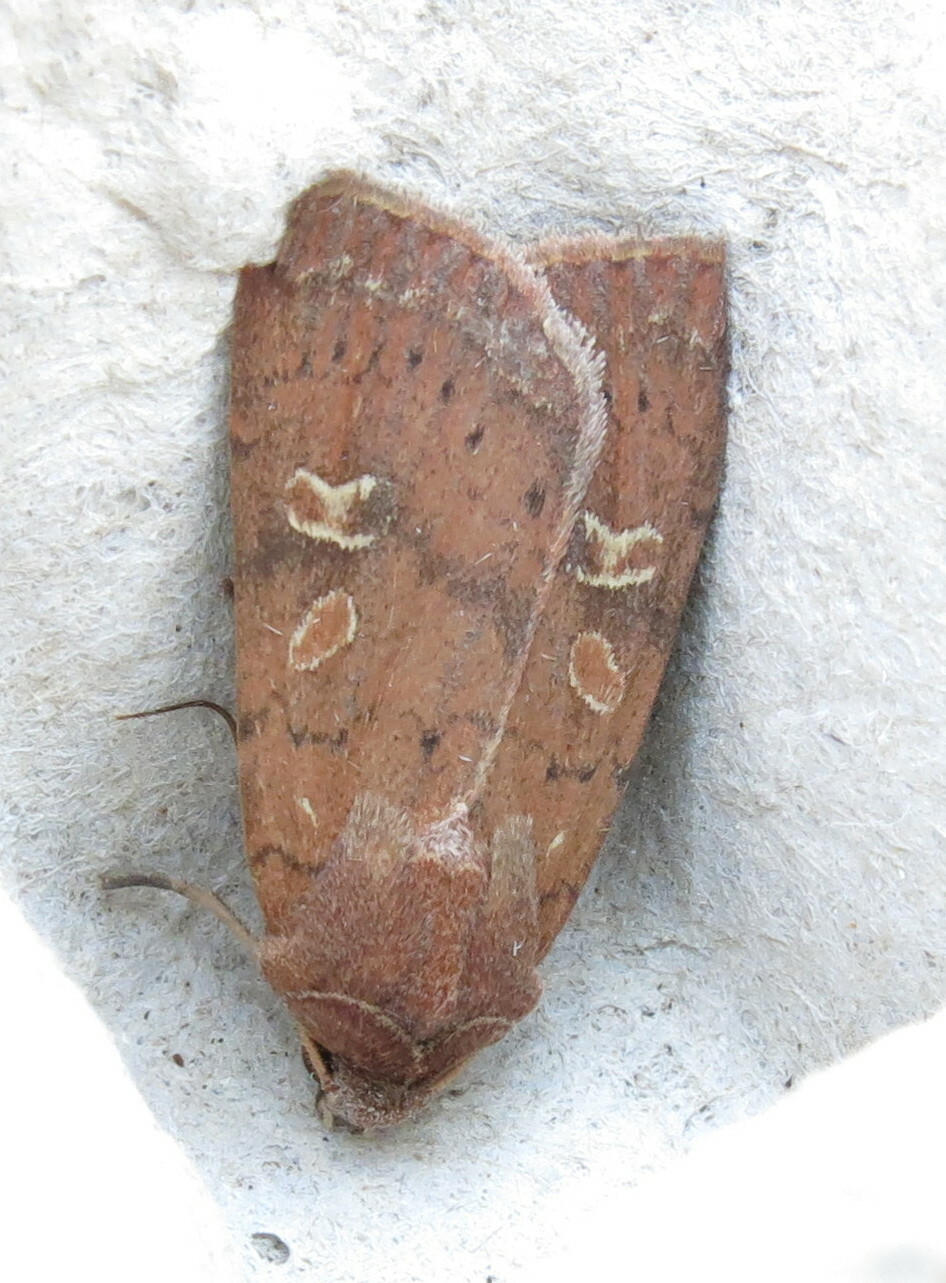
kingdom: Animalia
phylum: Arthropoda
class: Insecta
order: Lepidoptera
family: Noctuidae
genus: Xestia
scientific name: Xestia xanthographa
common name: Square-spot rustic
